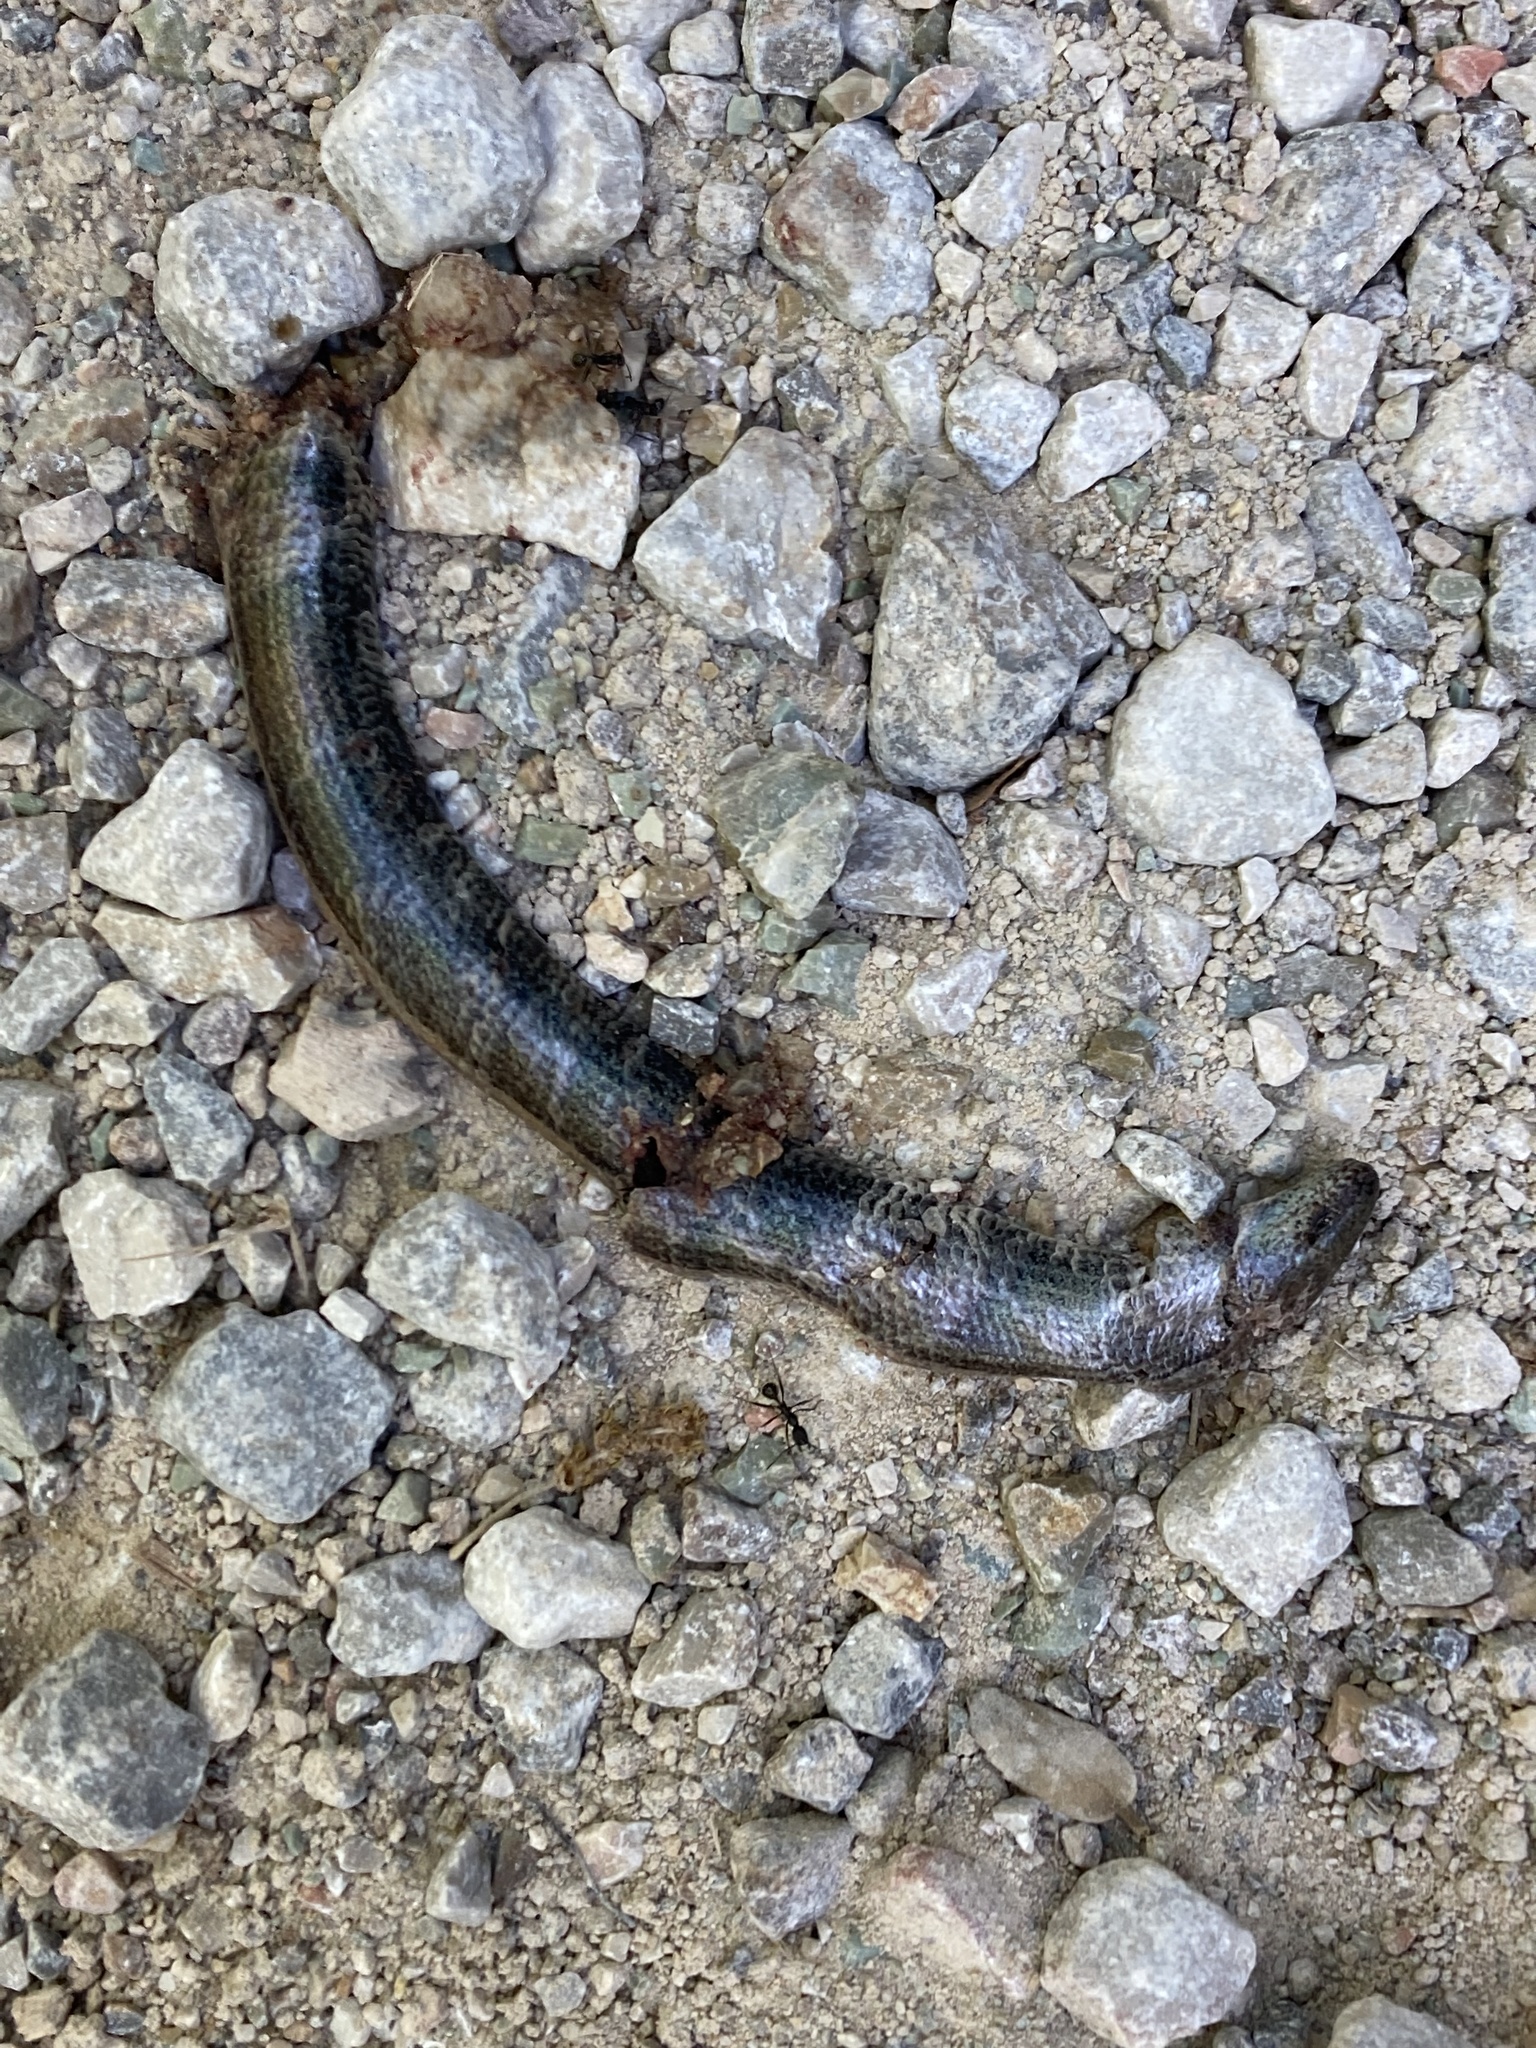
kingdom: Animalia
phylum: Chordata
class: Squamata
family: Anguidae
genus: Anguis
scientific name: Anguis veronensis
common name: Italian slow worm
